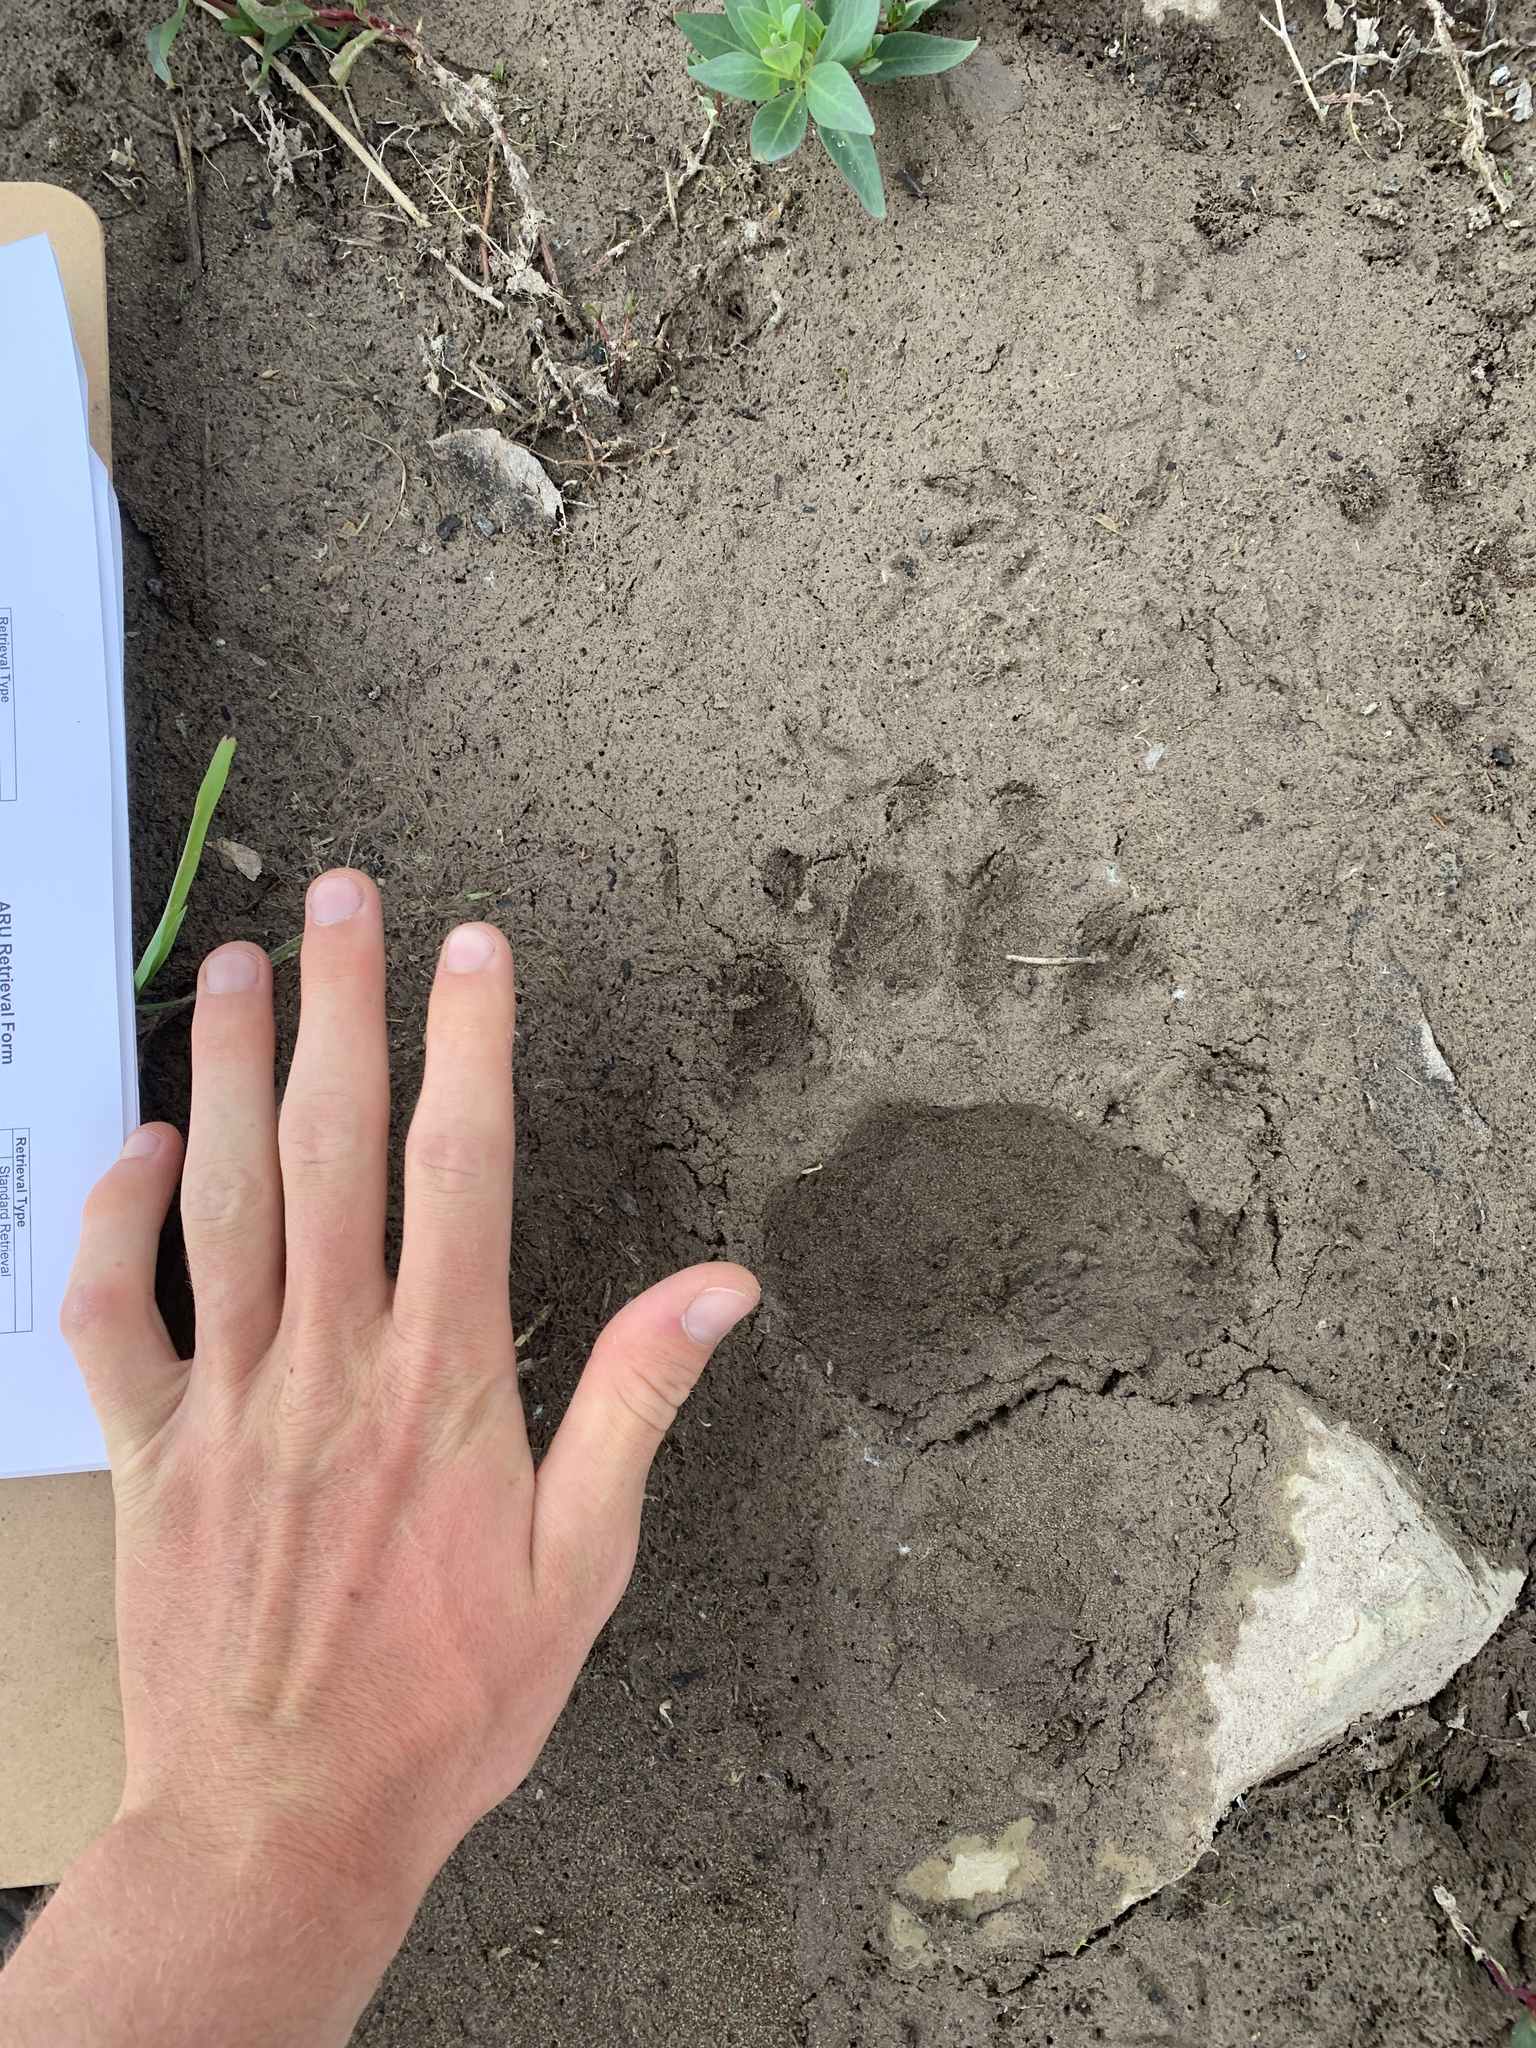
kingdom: Animalia
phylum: Chordata
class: Mammalia
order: Carnivora
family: Ursidae
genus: Ursus
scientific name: Ursus americanus
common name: American black bear
